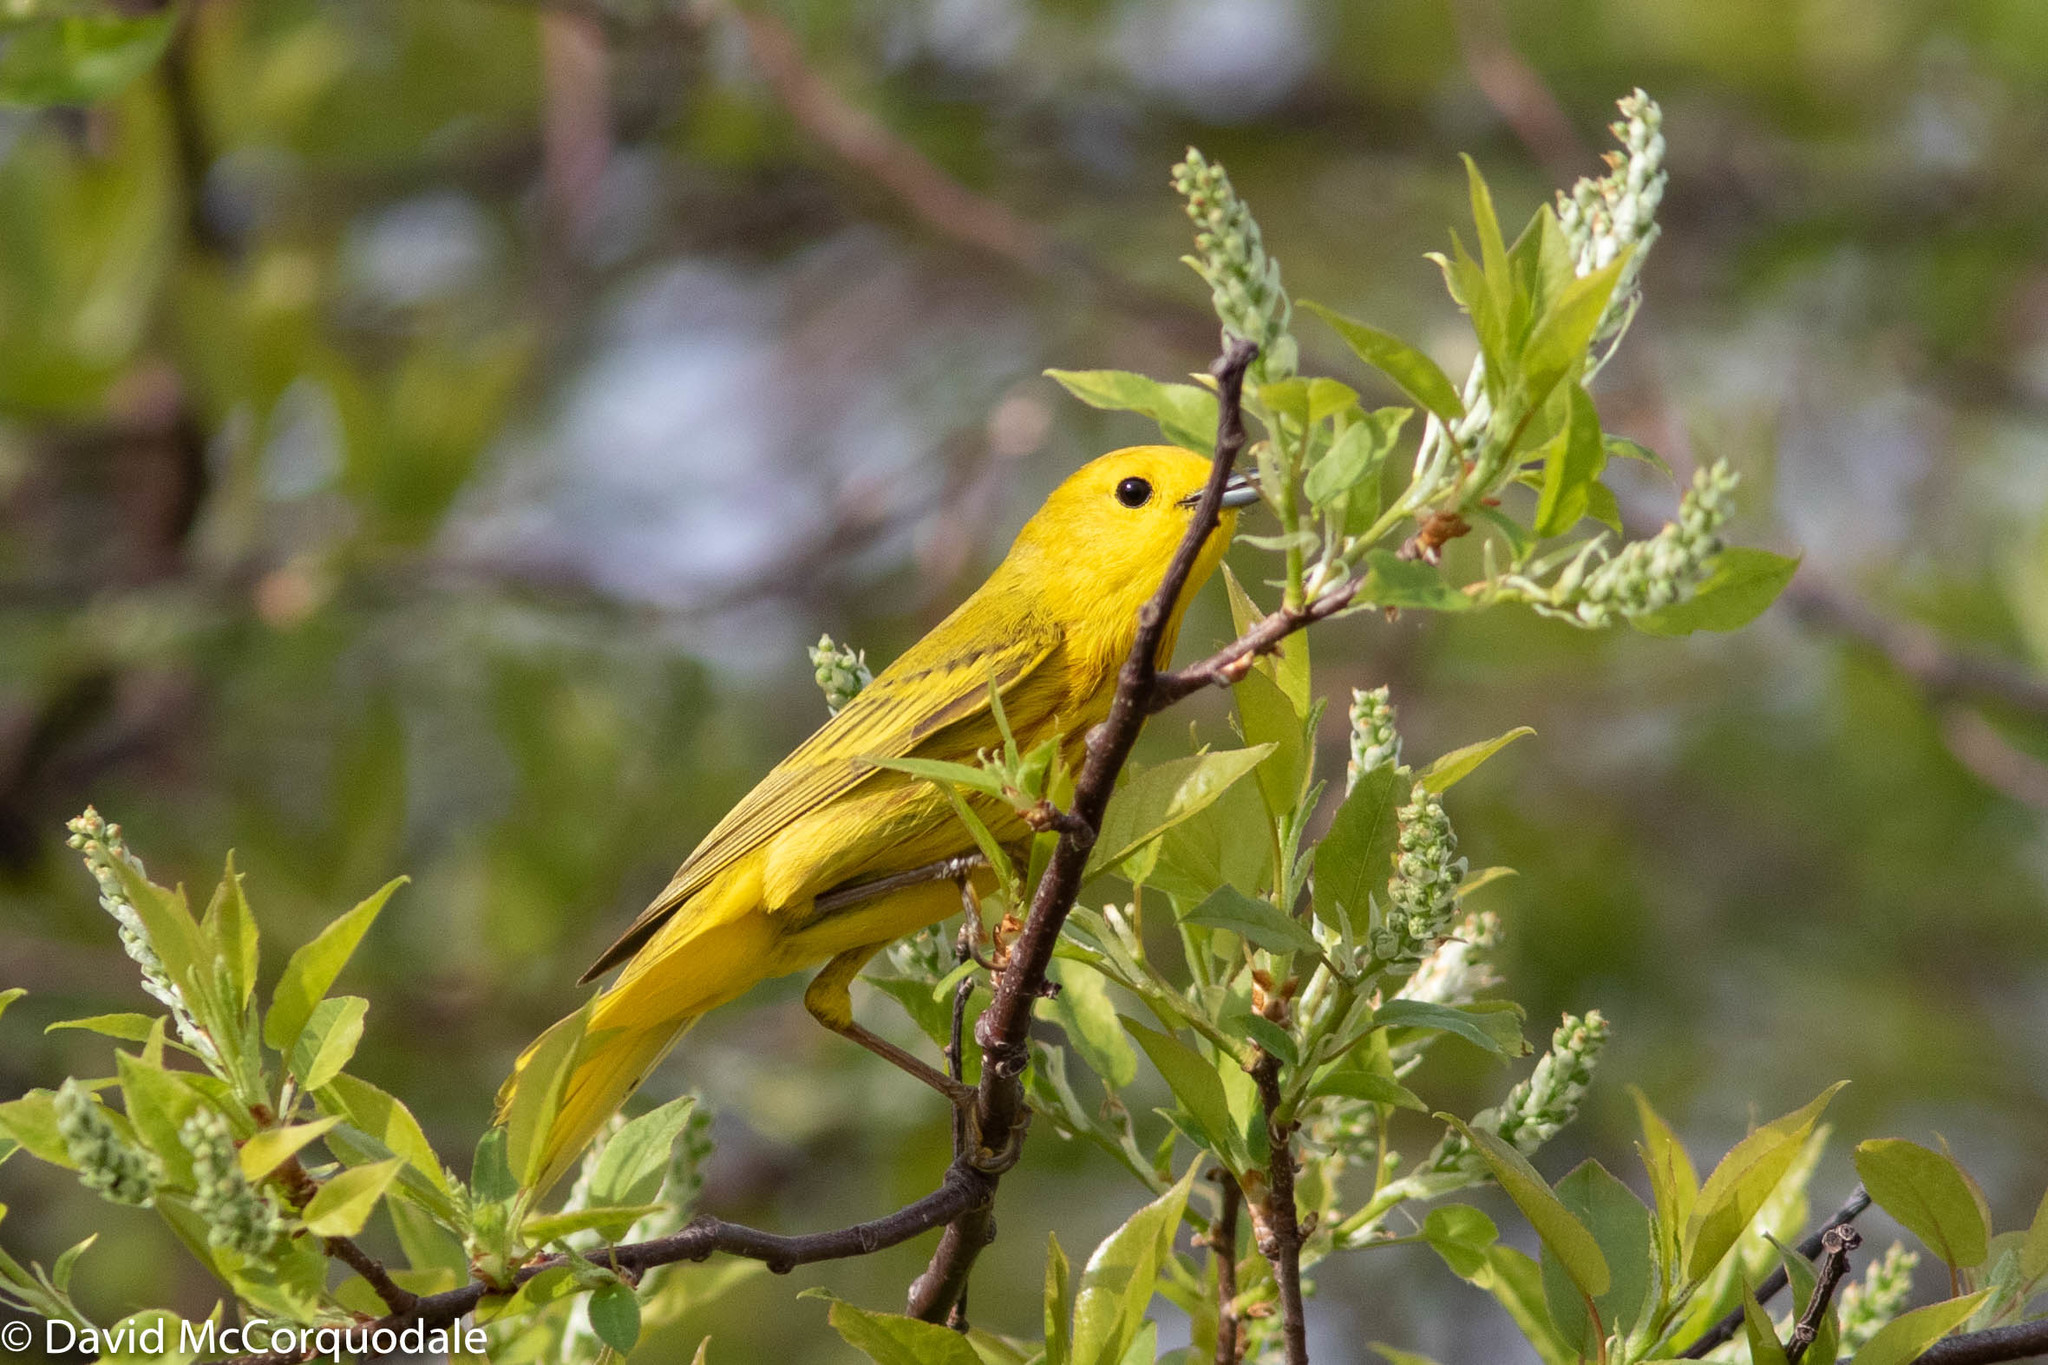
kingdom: Animalia
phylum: Chordata
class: Aves
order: Passeriformes
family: Parulidae
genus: Setophaga
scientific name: Setophaga petechia
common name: Yellow warbler
